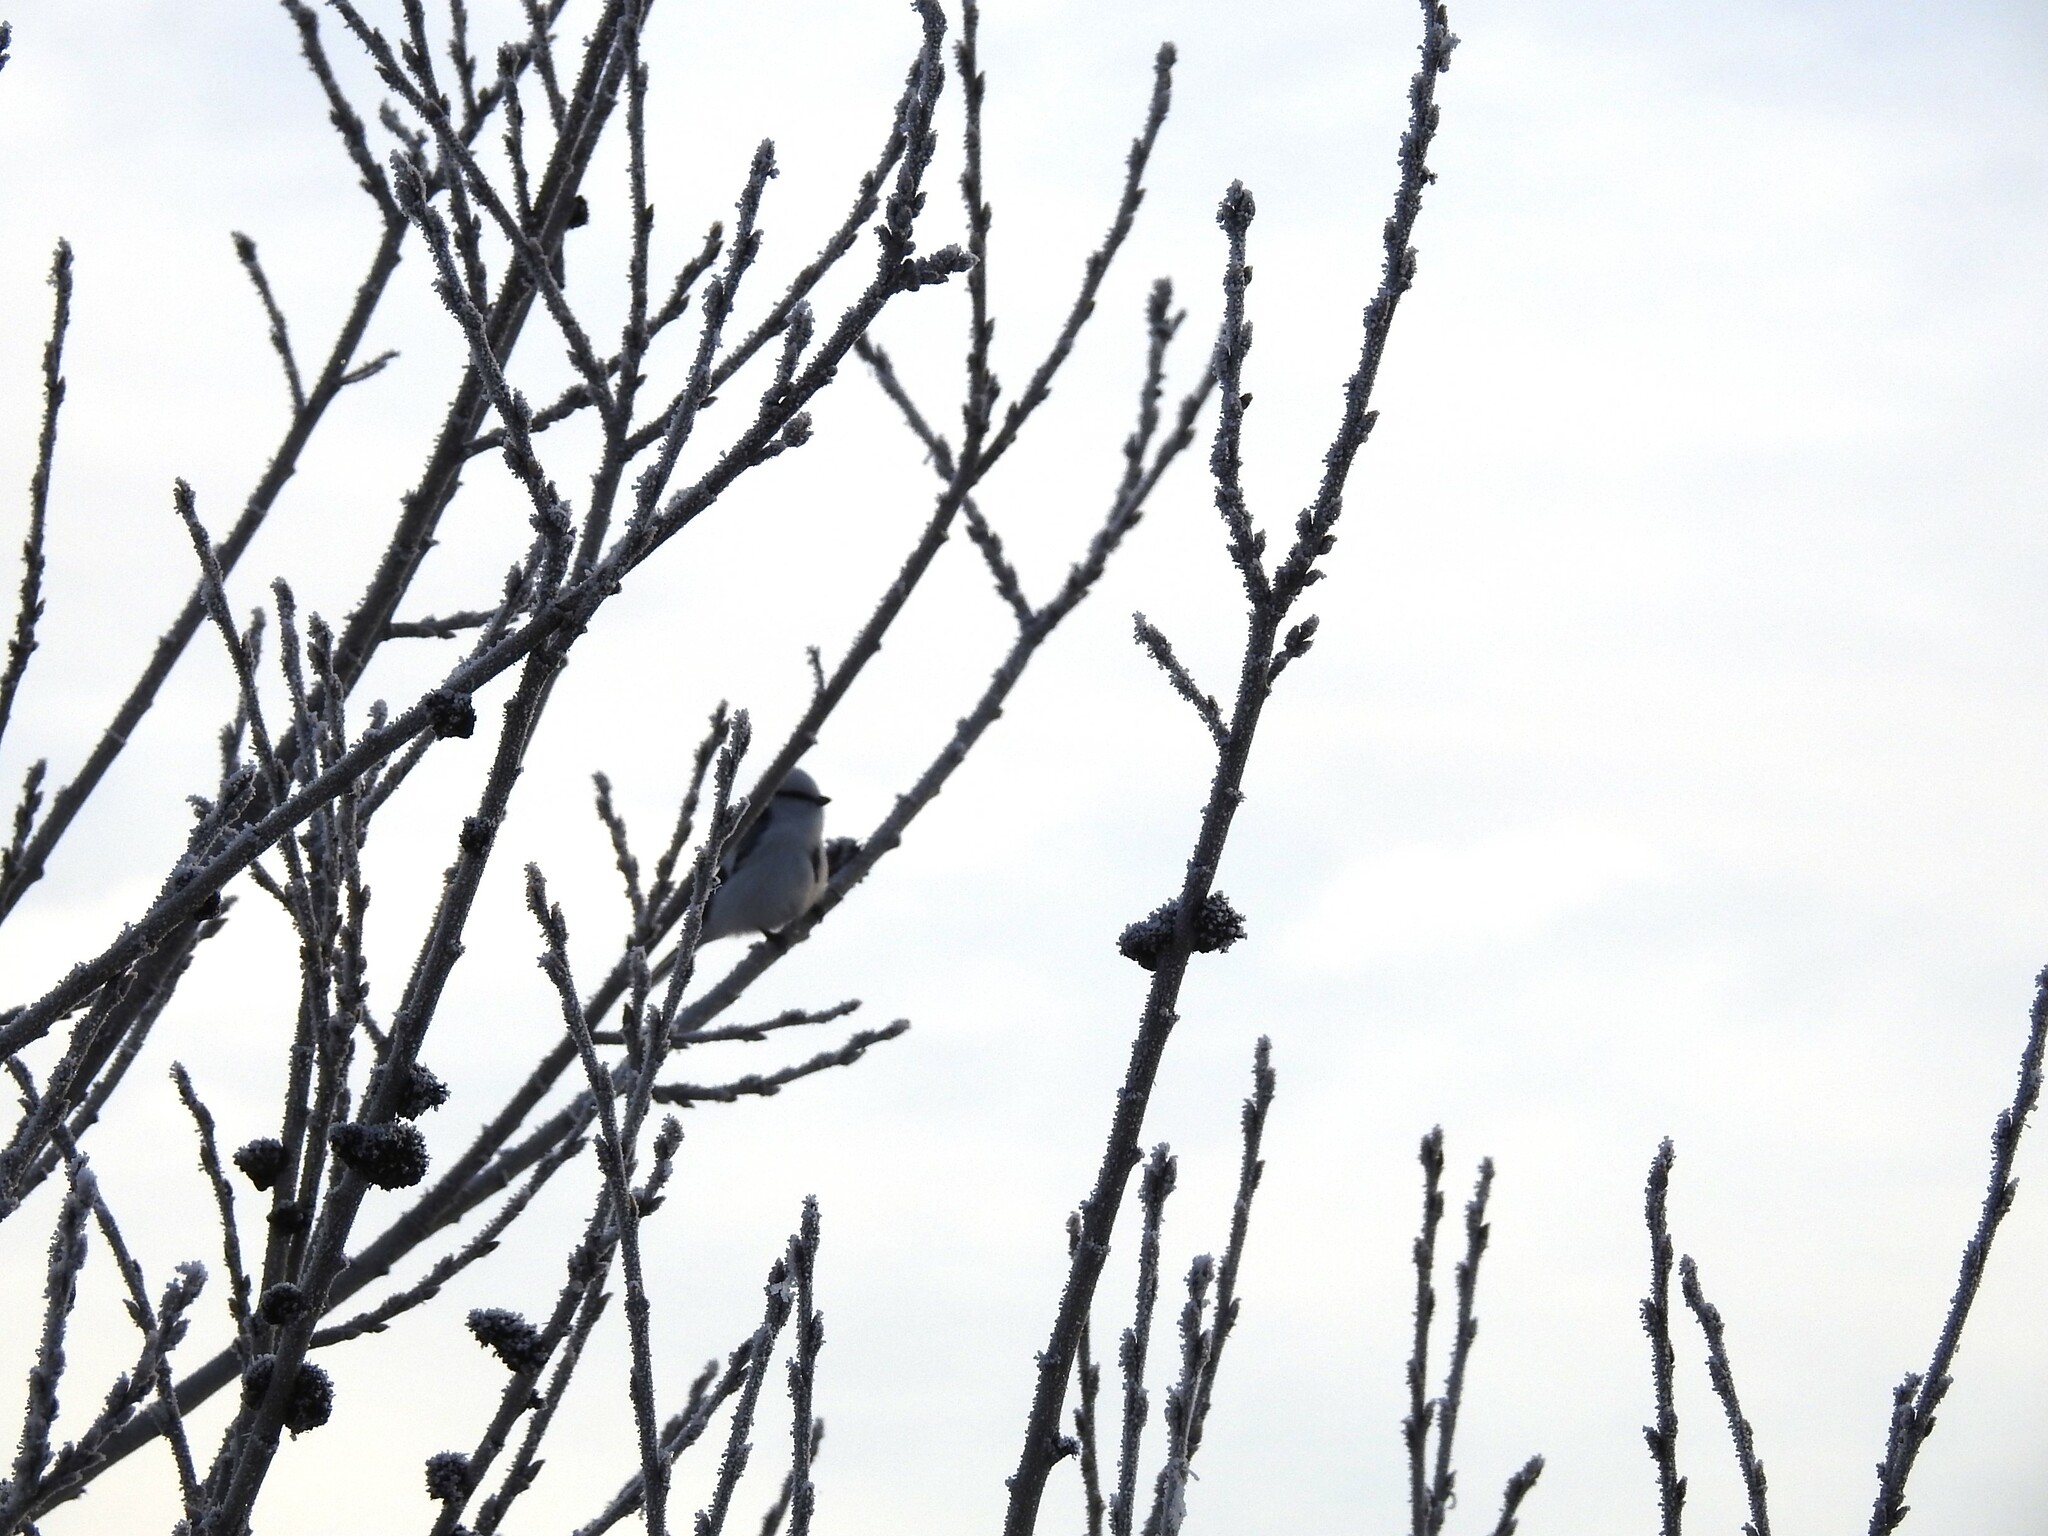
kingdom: Animalia
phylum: Chordata
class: Aves
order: Passeriformes
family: Paridae
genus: Cyanistes
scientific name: Cyanistes cyanus
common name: Azure tit
